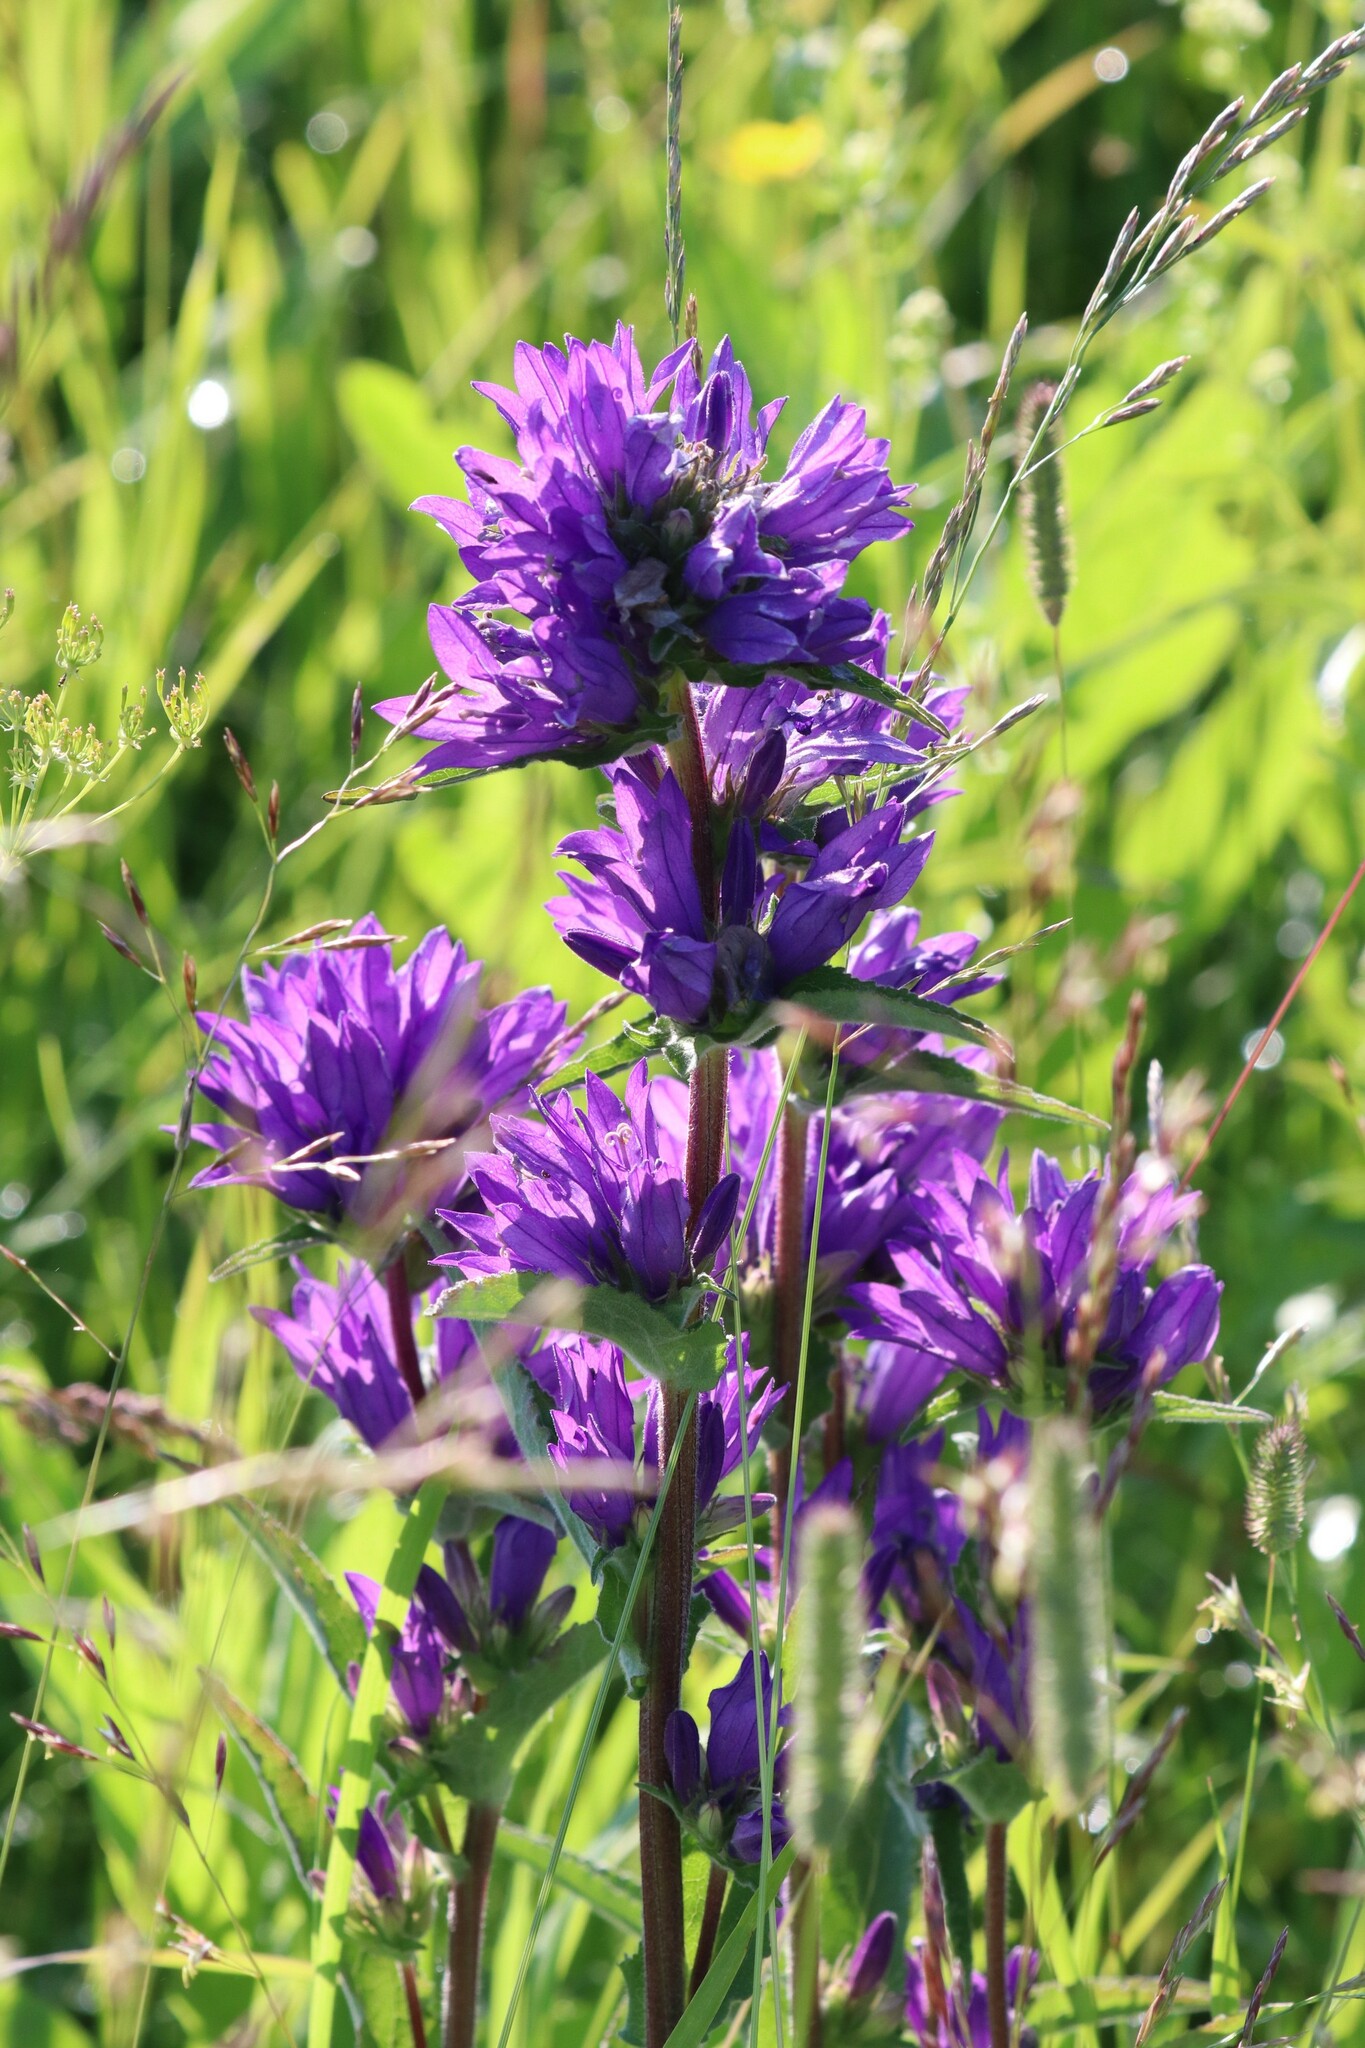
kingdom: Plantae
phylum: Tracheophyta
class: Magnoliopsida
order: Asterales
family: Campanulaceae
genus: Campanula
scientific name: Campanula glomerata
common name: Clustered bellflower
